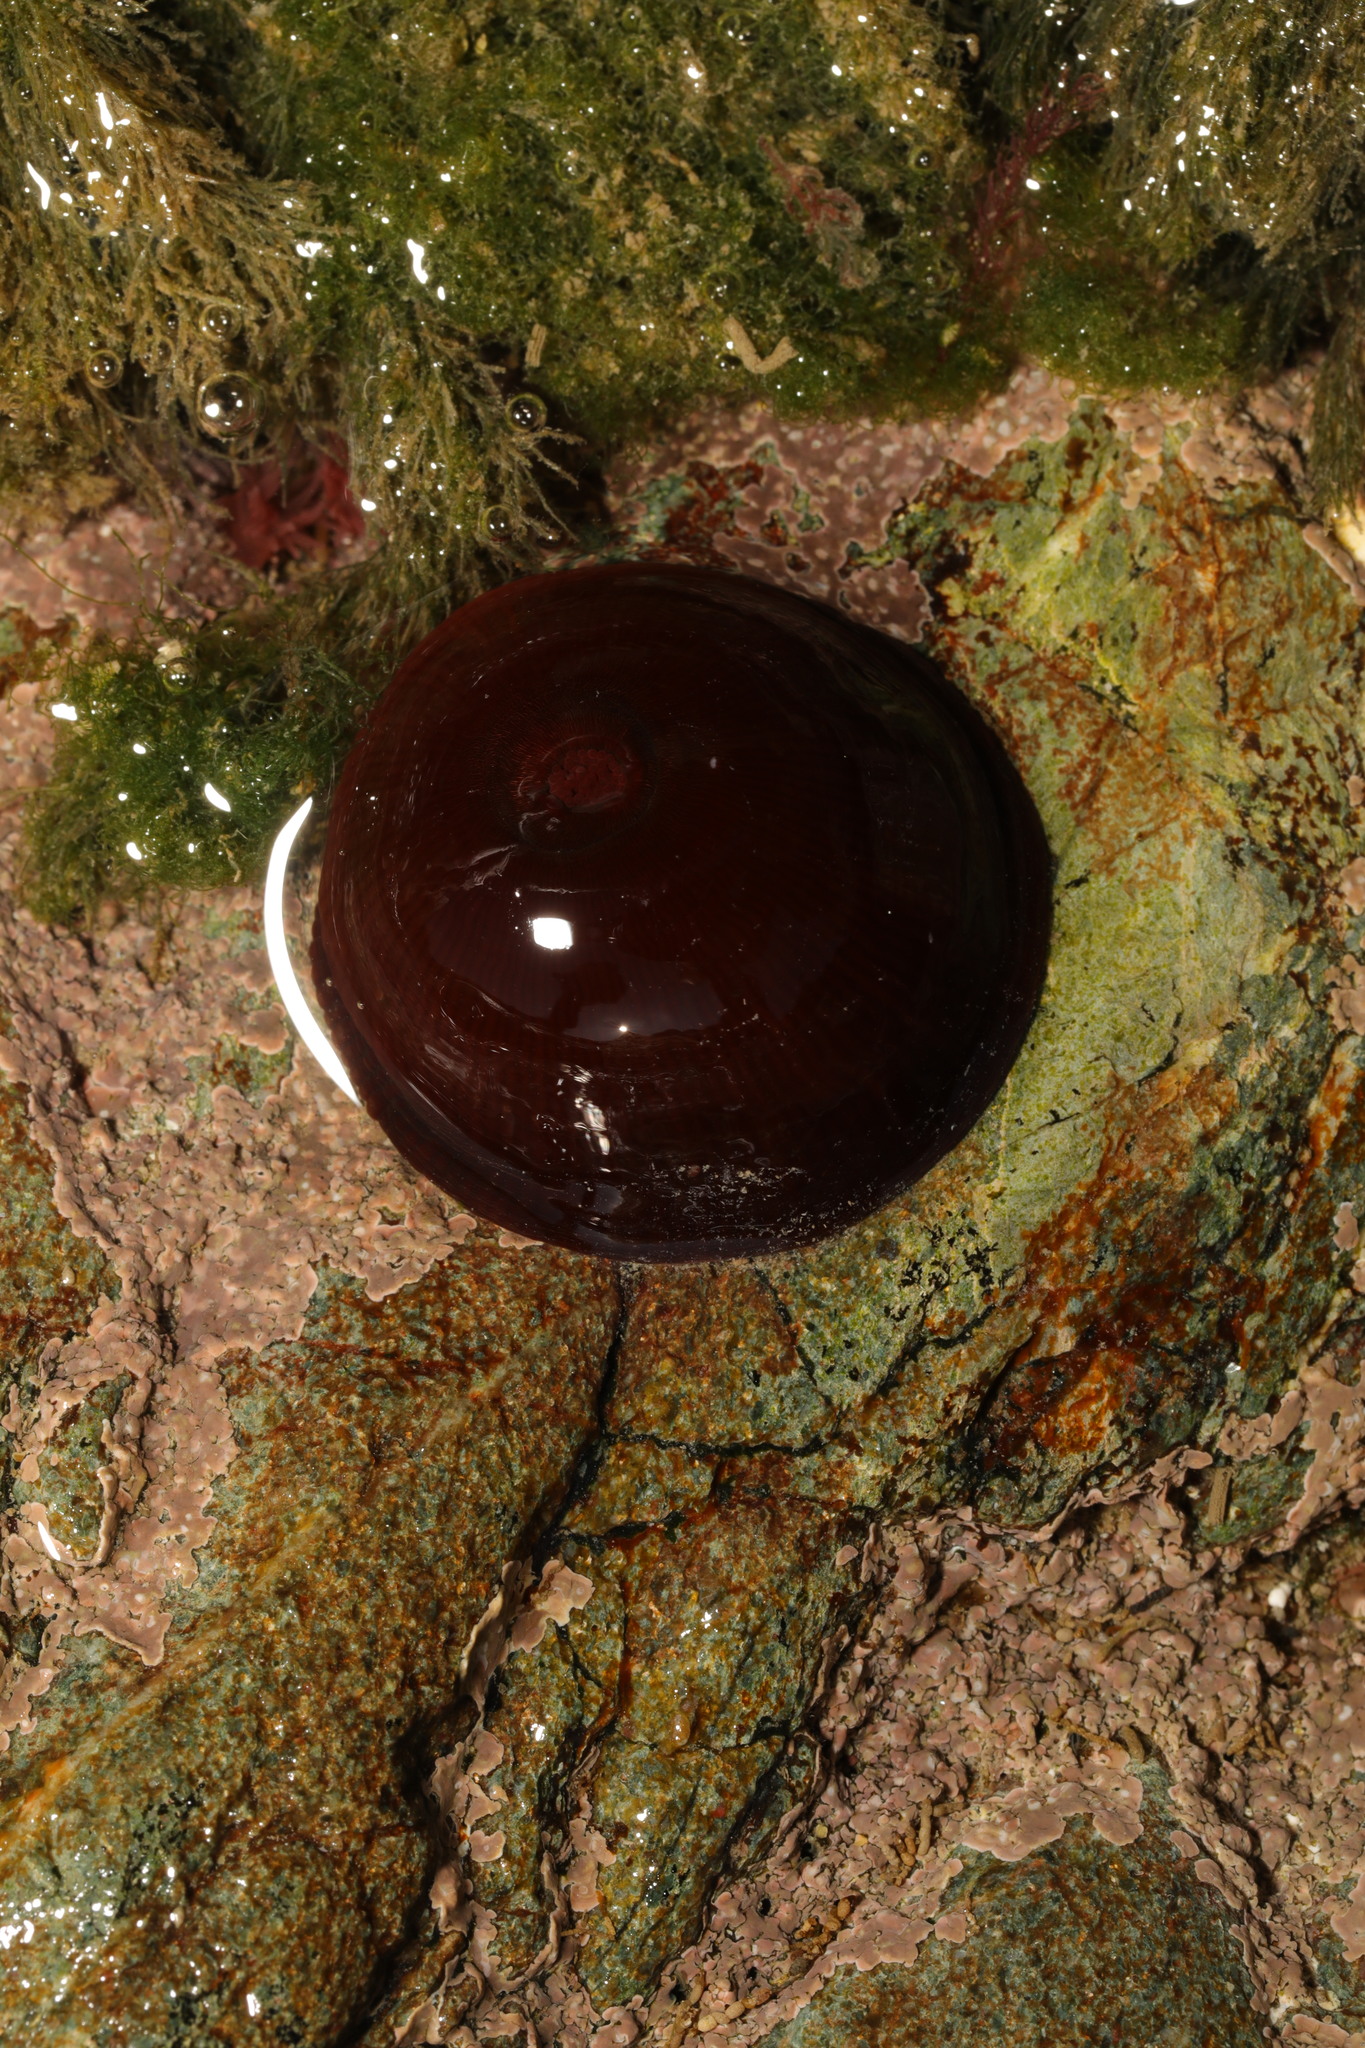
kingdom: Animalia
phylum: Cnidaria
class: Anthozoa
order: Actiniaria
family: Actiniidae
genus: Actinia
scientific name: Actinia equina
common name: Beadlet anemone
